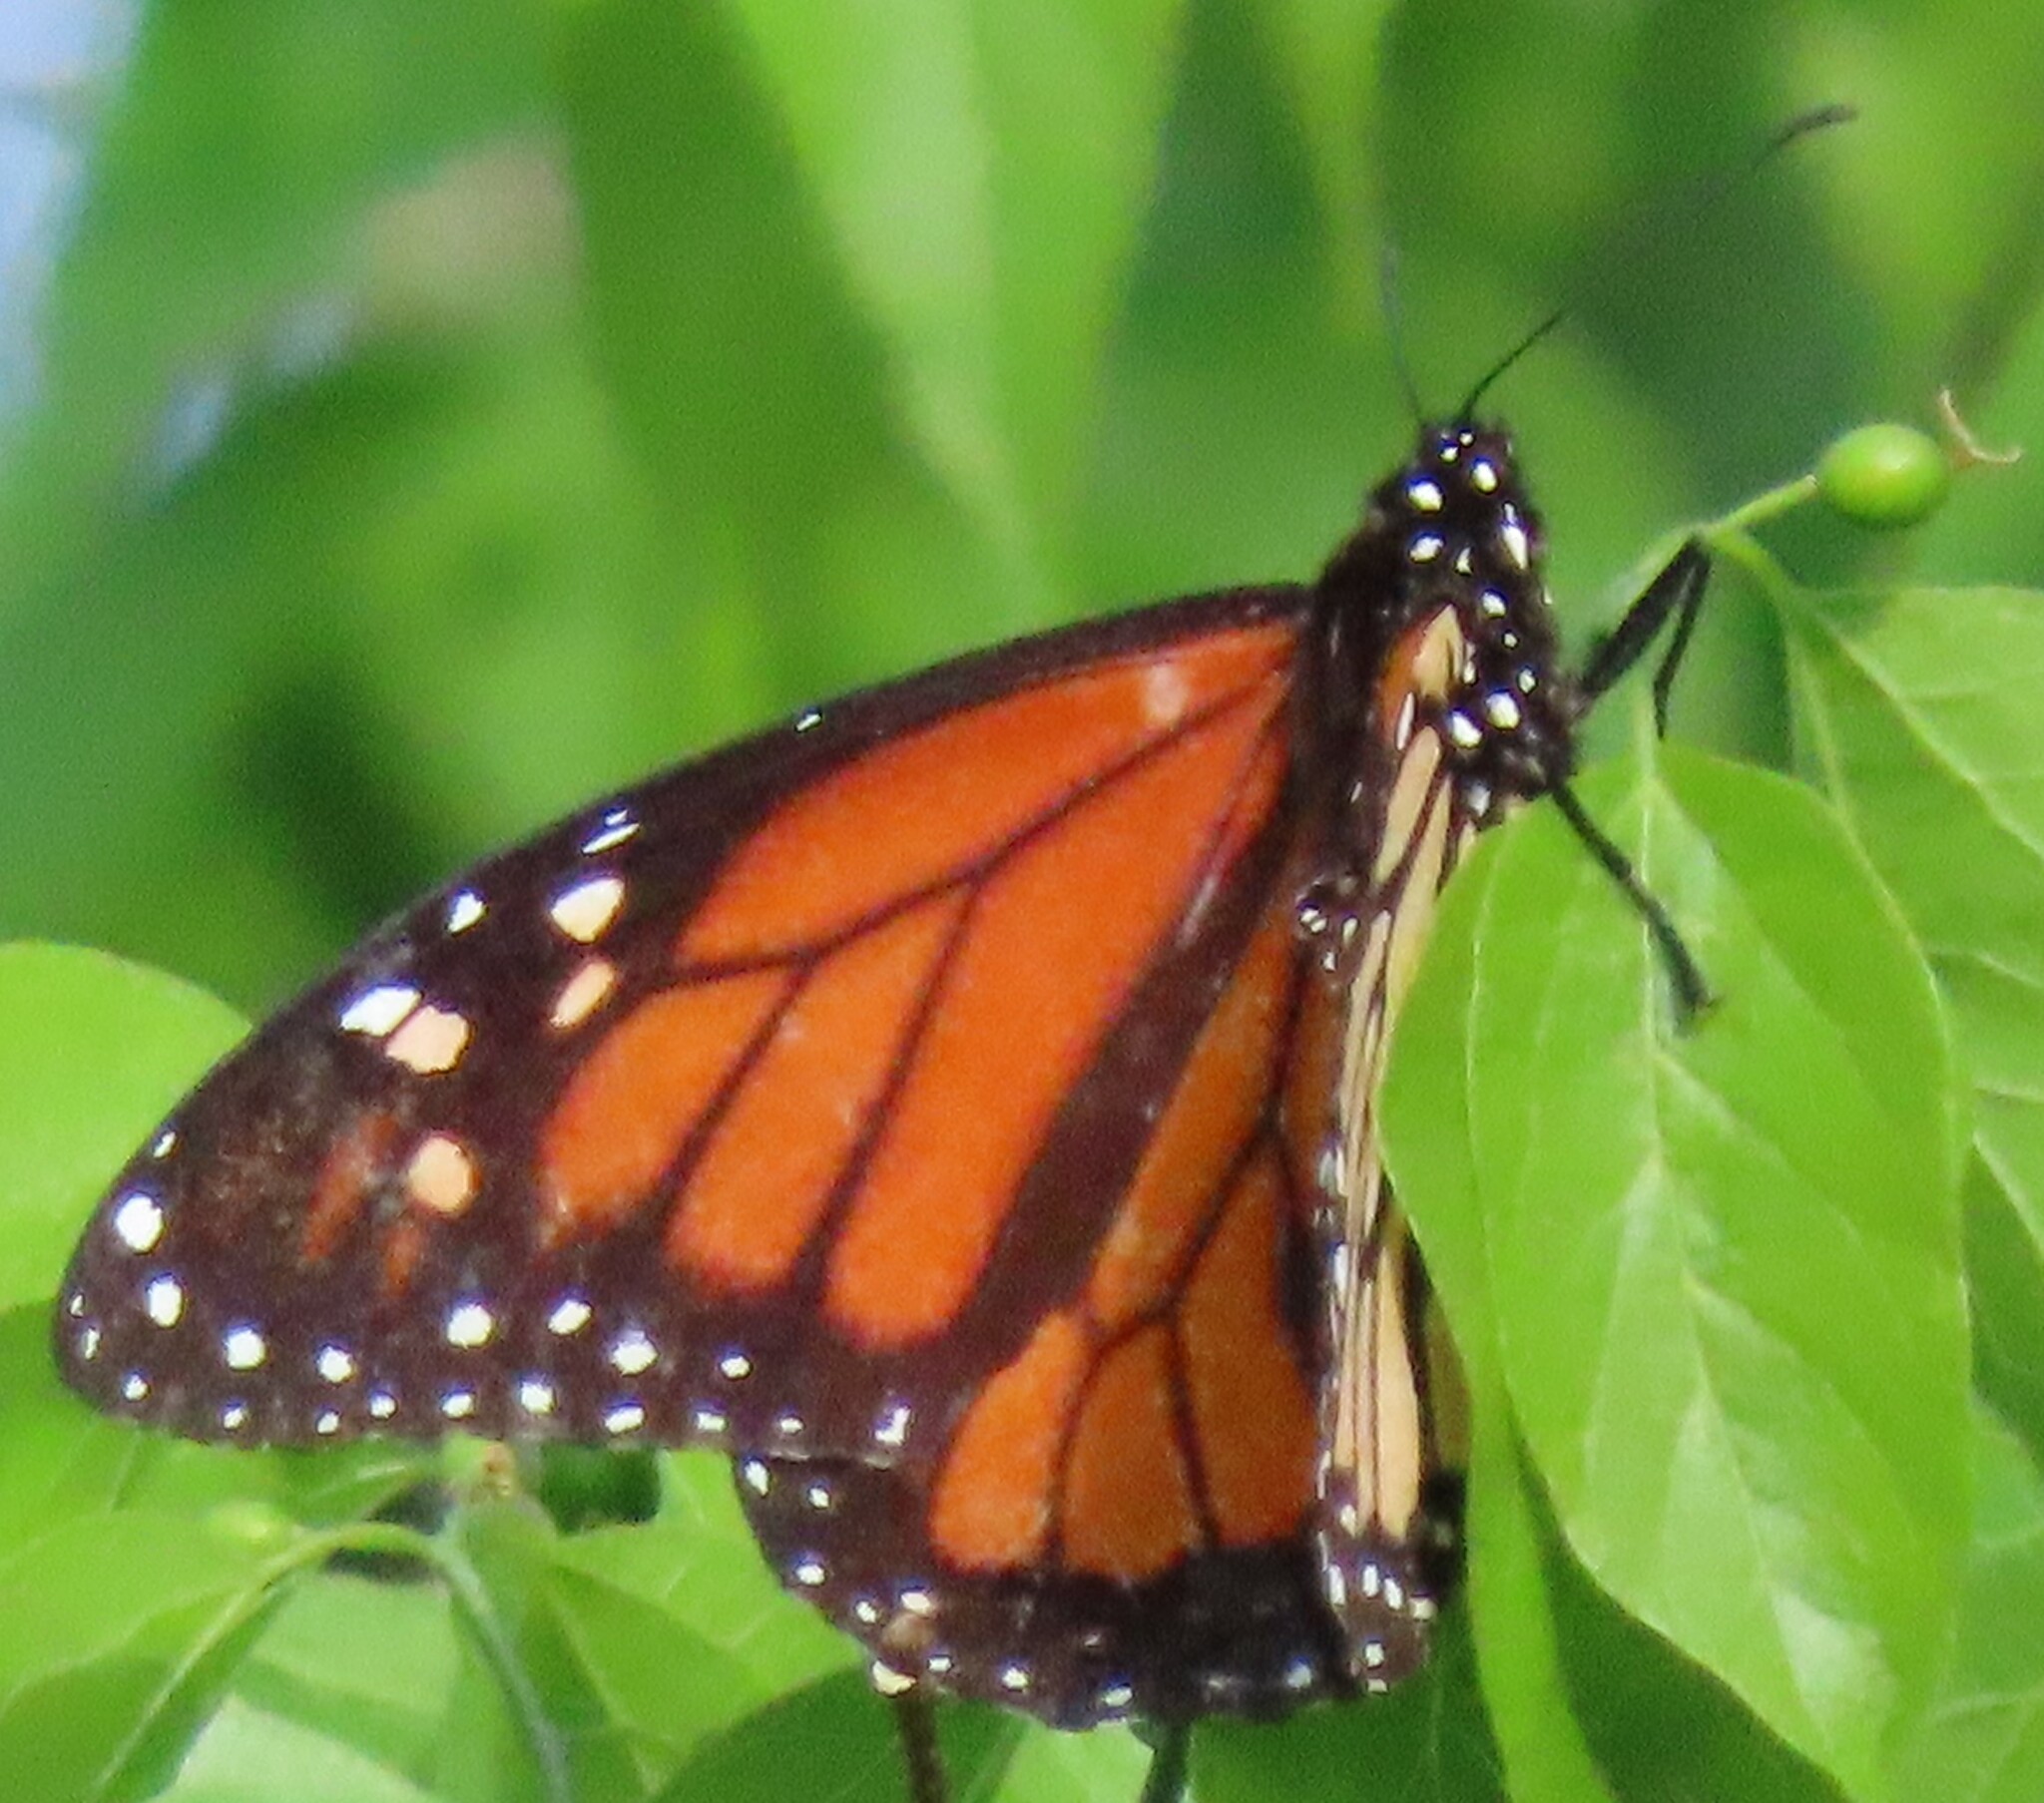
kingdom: Animalia
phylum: Arthropoda
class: Insecta
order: Lepidoptera
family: Nymphalidae
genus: Danaus
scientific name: Danaus plexippus
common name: Monarch
